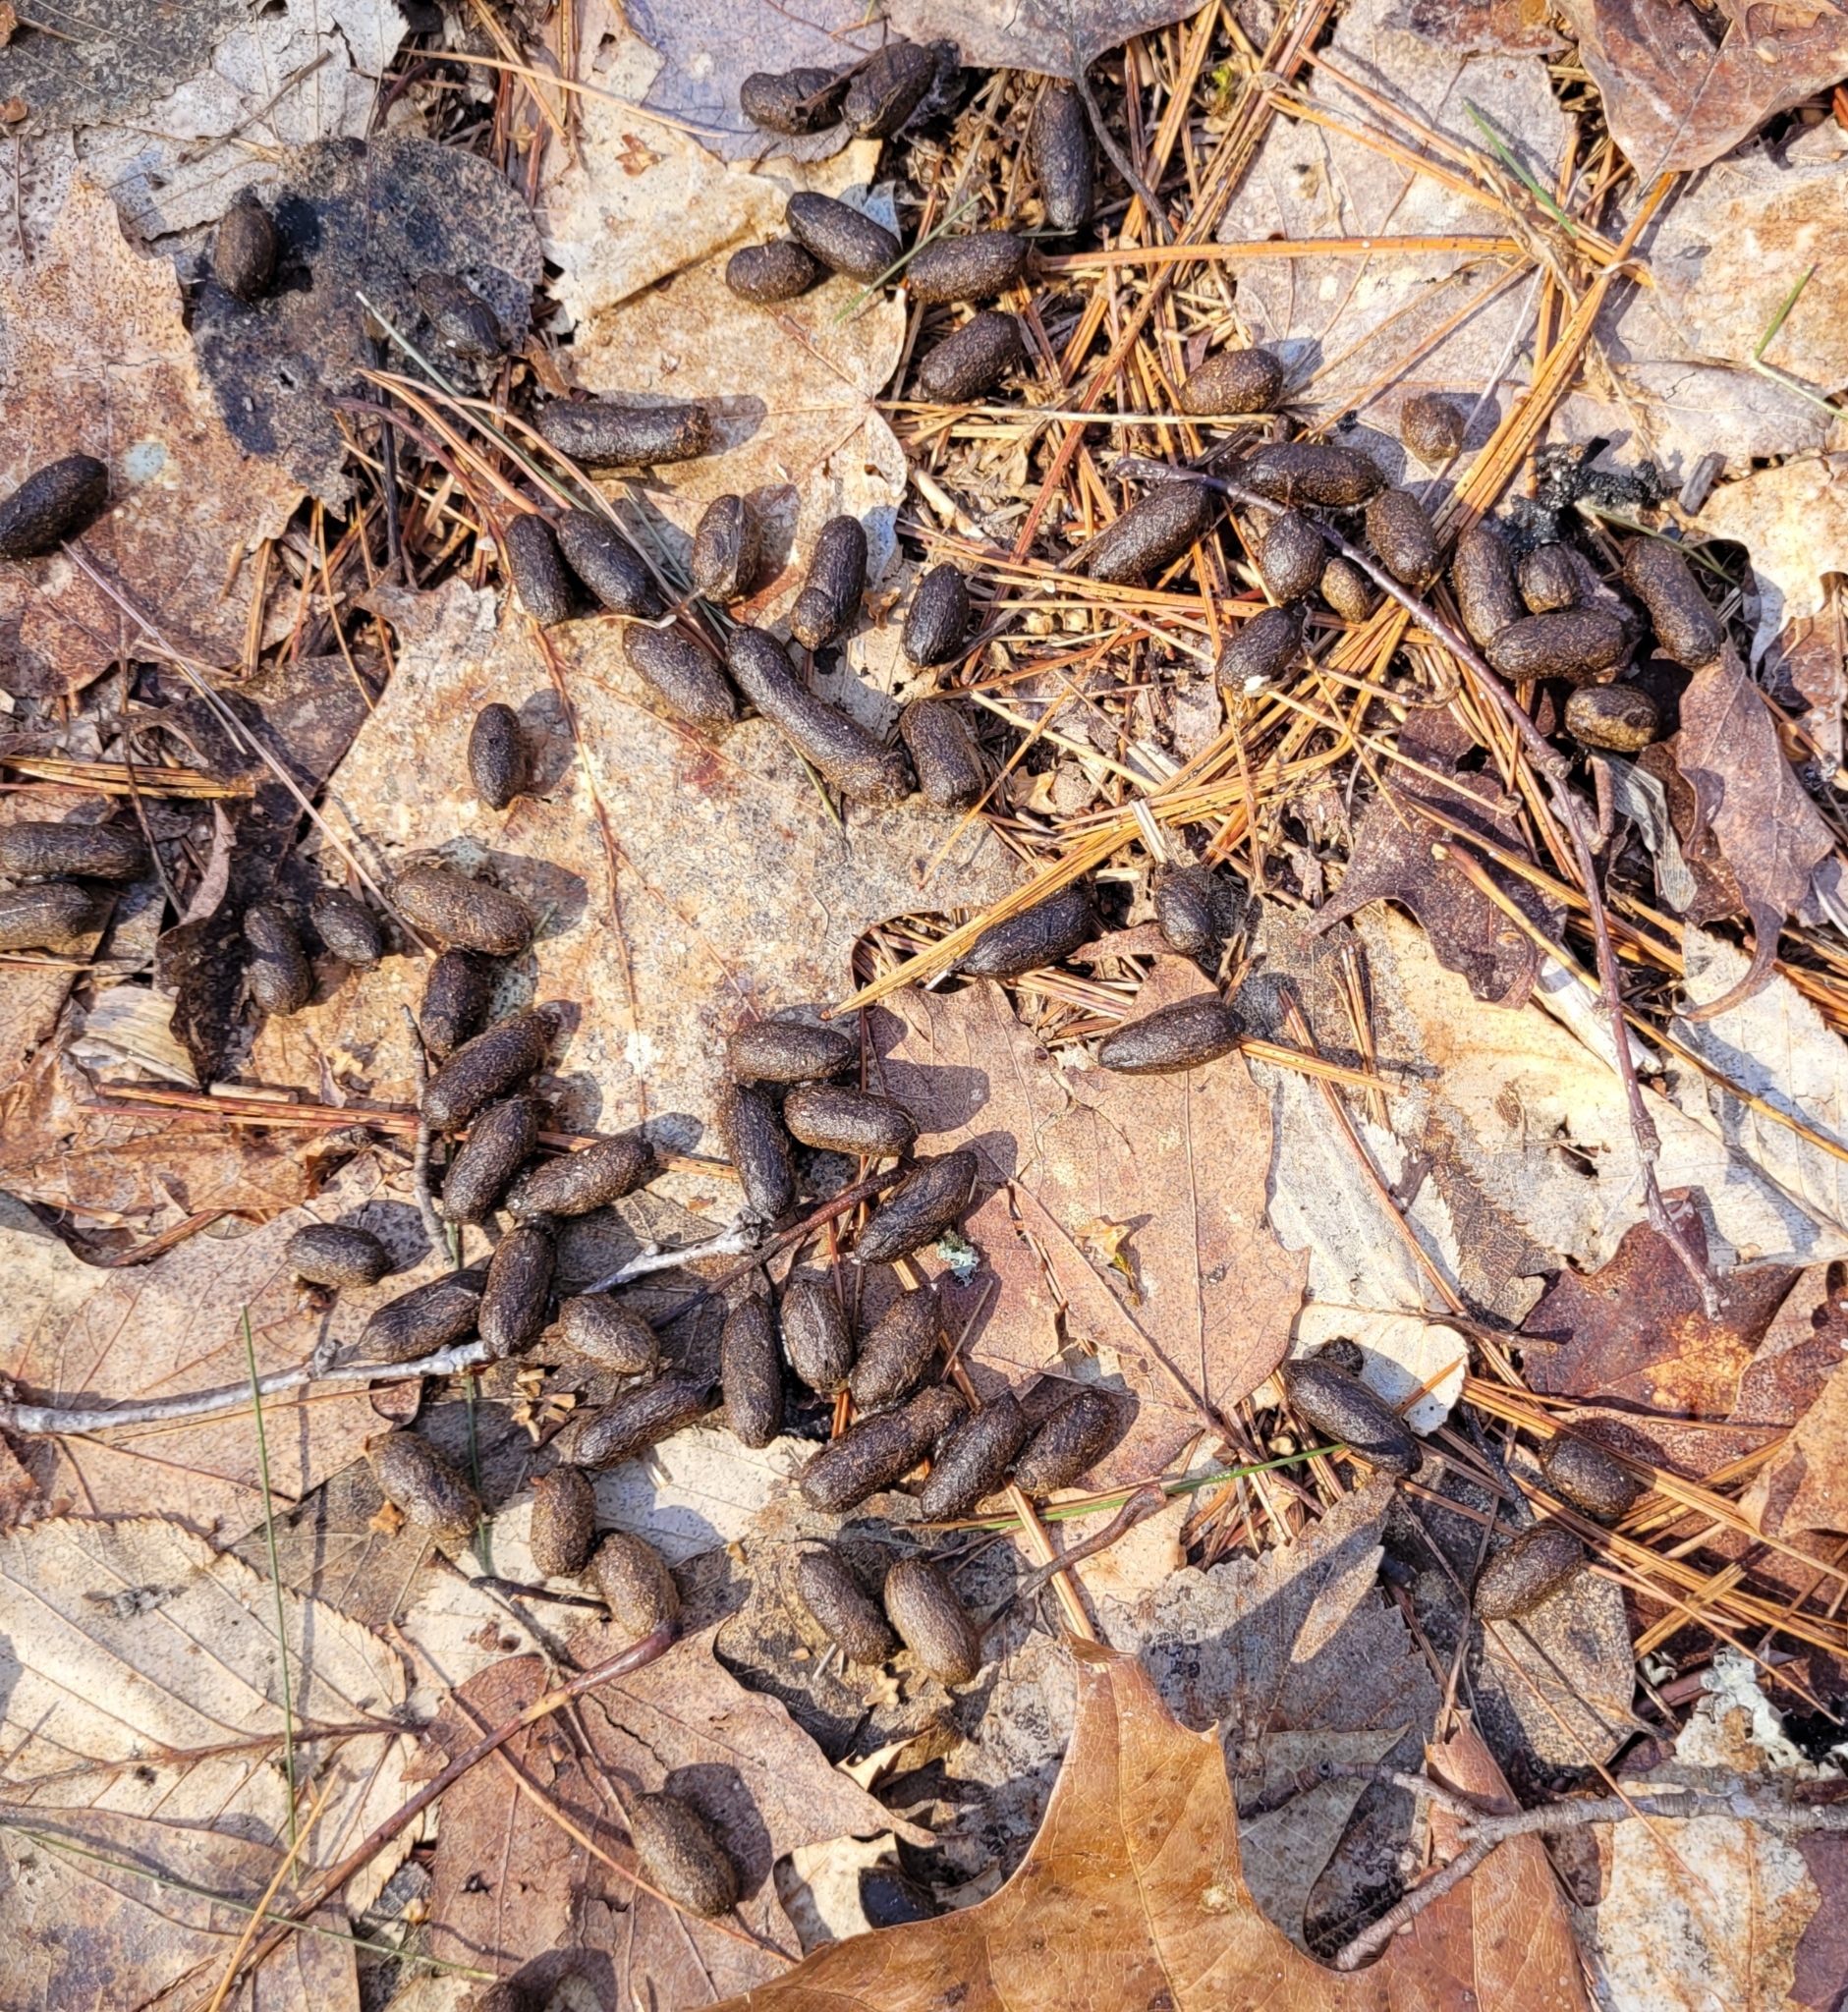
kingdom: Animalia
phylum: Chordata
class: Mammalia
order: Rodentia
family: Erethizontidae
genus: Erethizon
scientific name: Erethizon dorsatus
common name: North american porcupine
